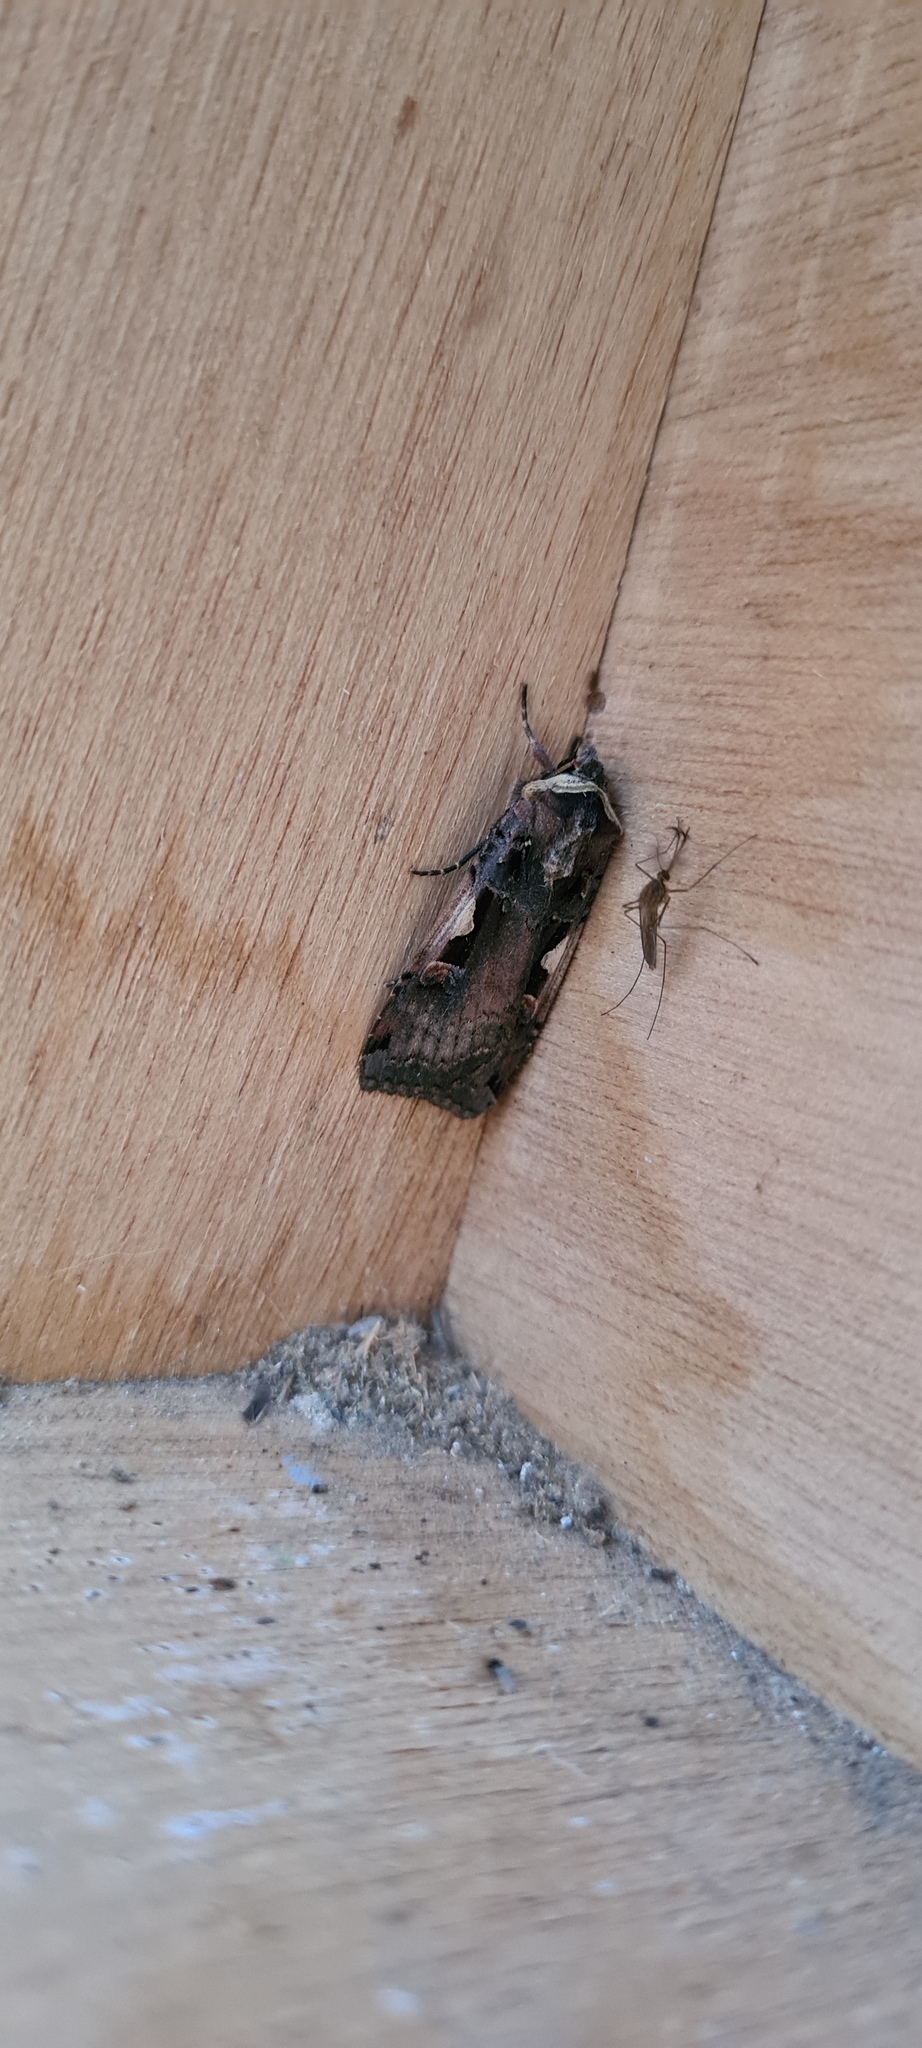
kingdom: Animalia
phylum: Arthropoda
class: Insecta
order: Lepidoptera
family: Noctuidae
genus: Xestia
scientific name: Xestia c-nigrum
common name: Setaceous hebrew character
